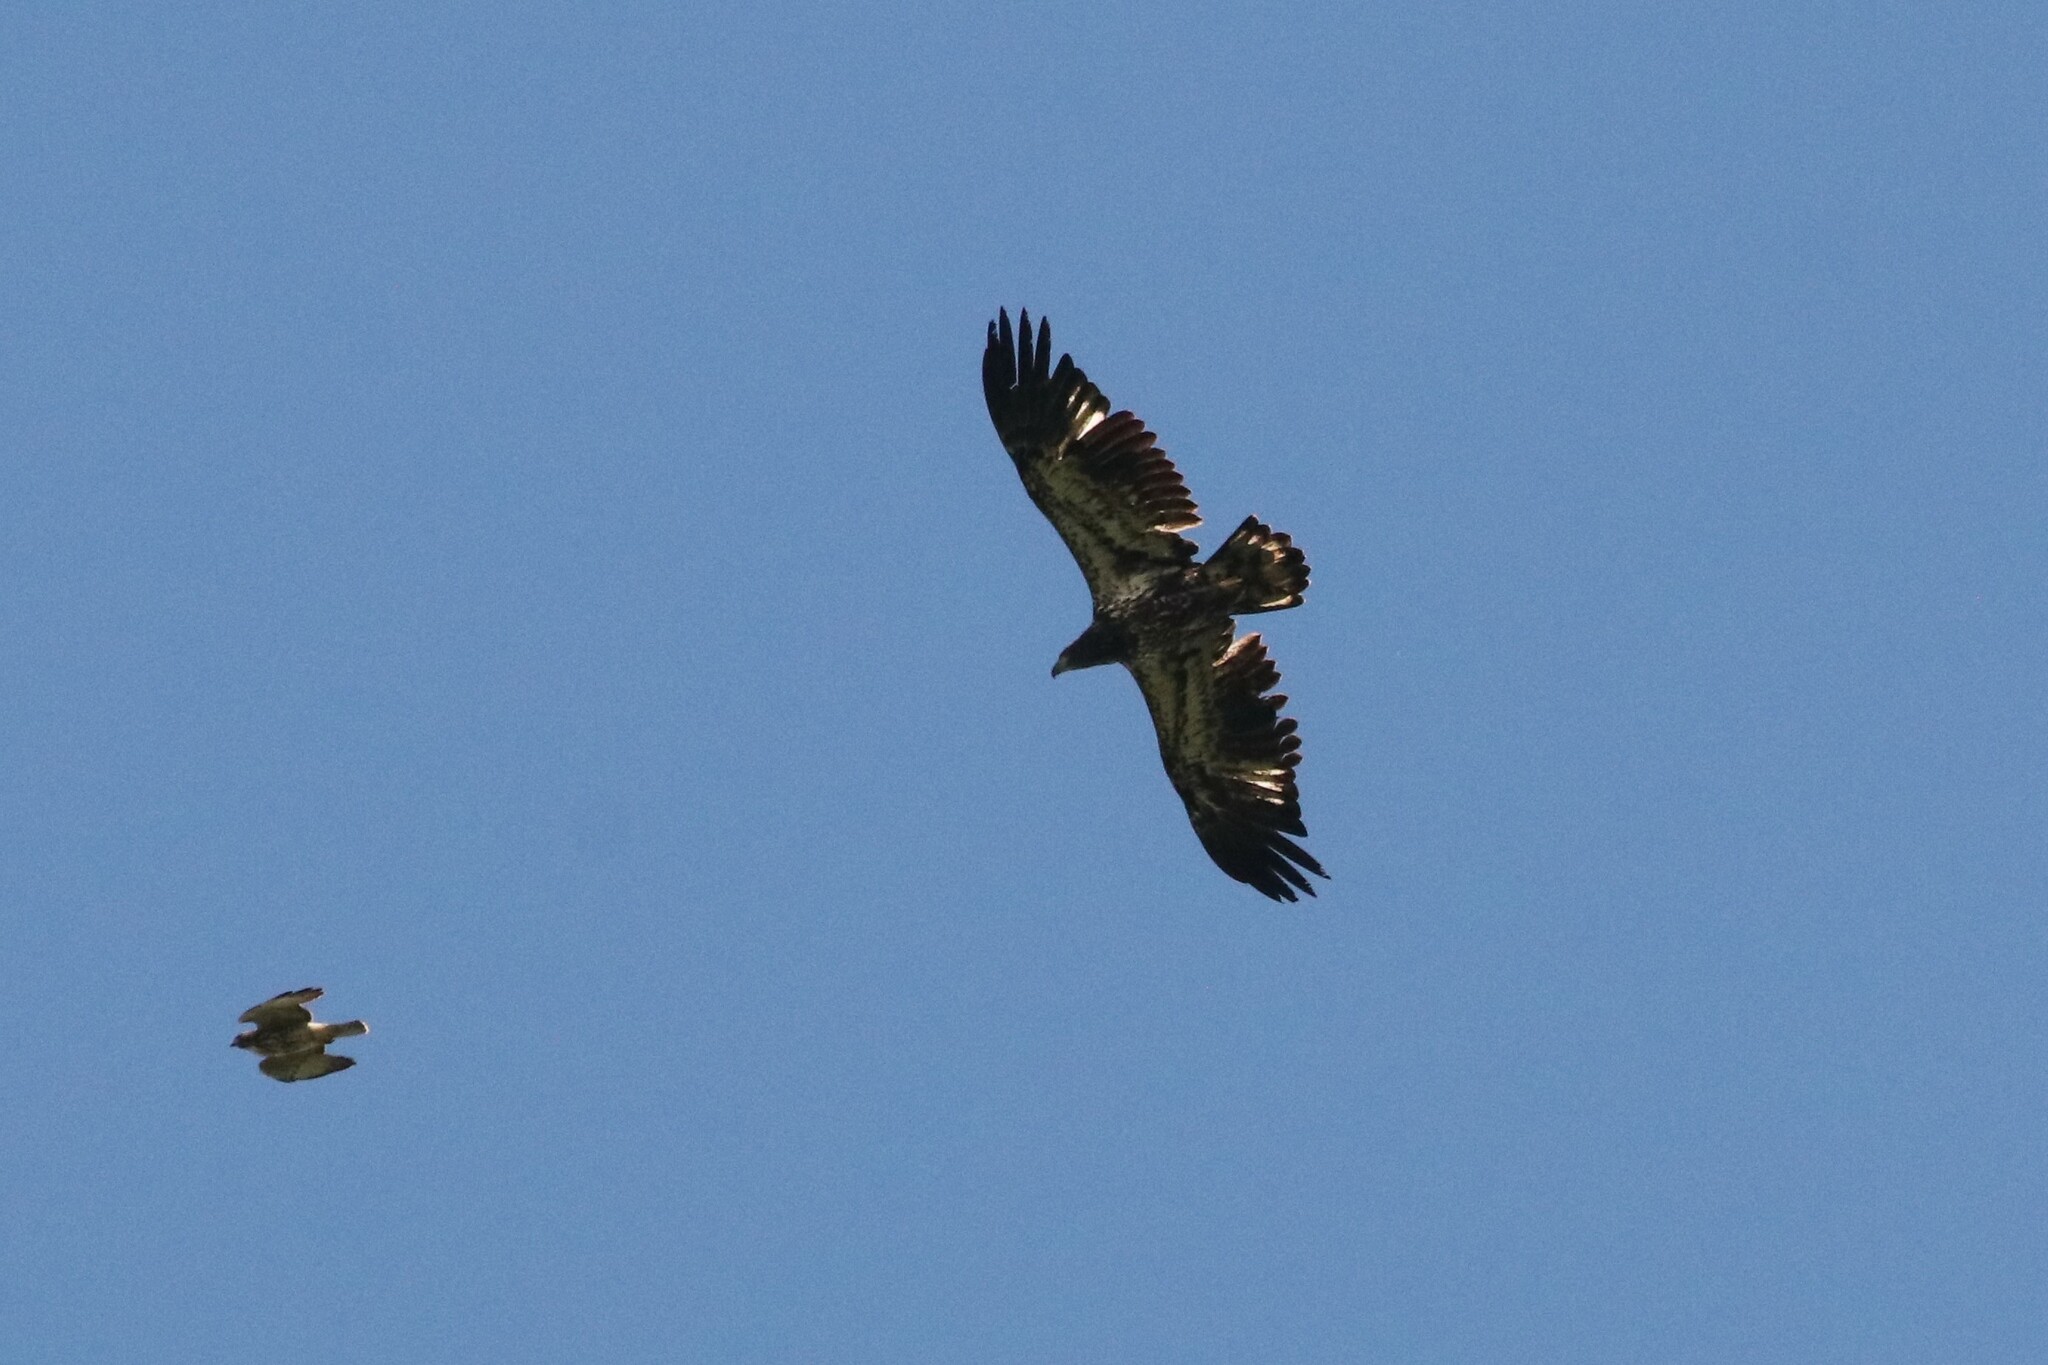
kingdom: Animalia
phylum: Chordata
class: Aves
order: Accipitriformes
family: Accipitridae
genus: Haliaeetus
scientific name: Haliaeetus leucocephalus
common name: Bald eagle
